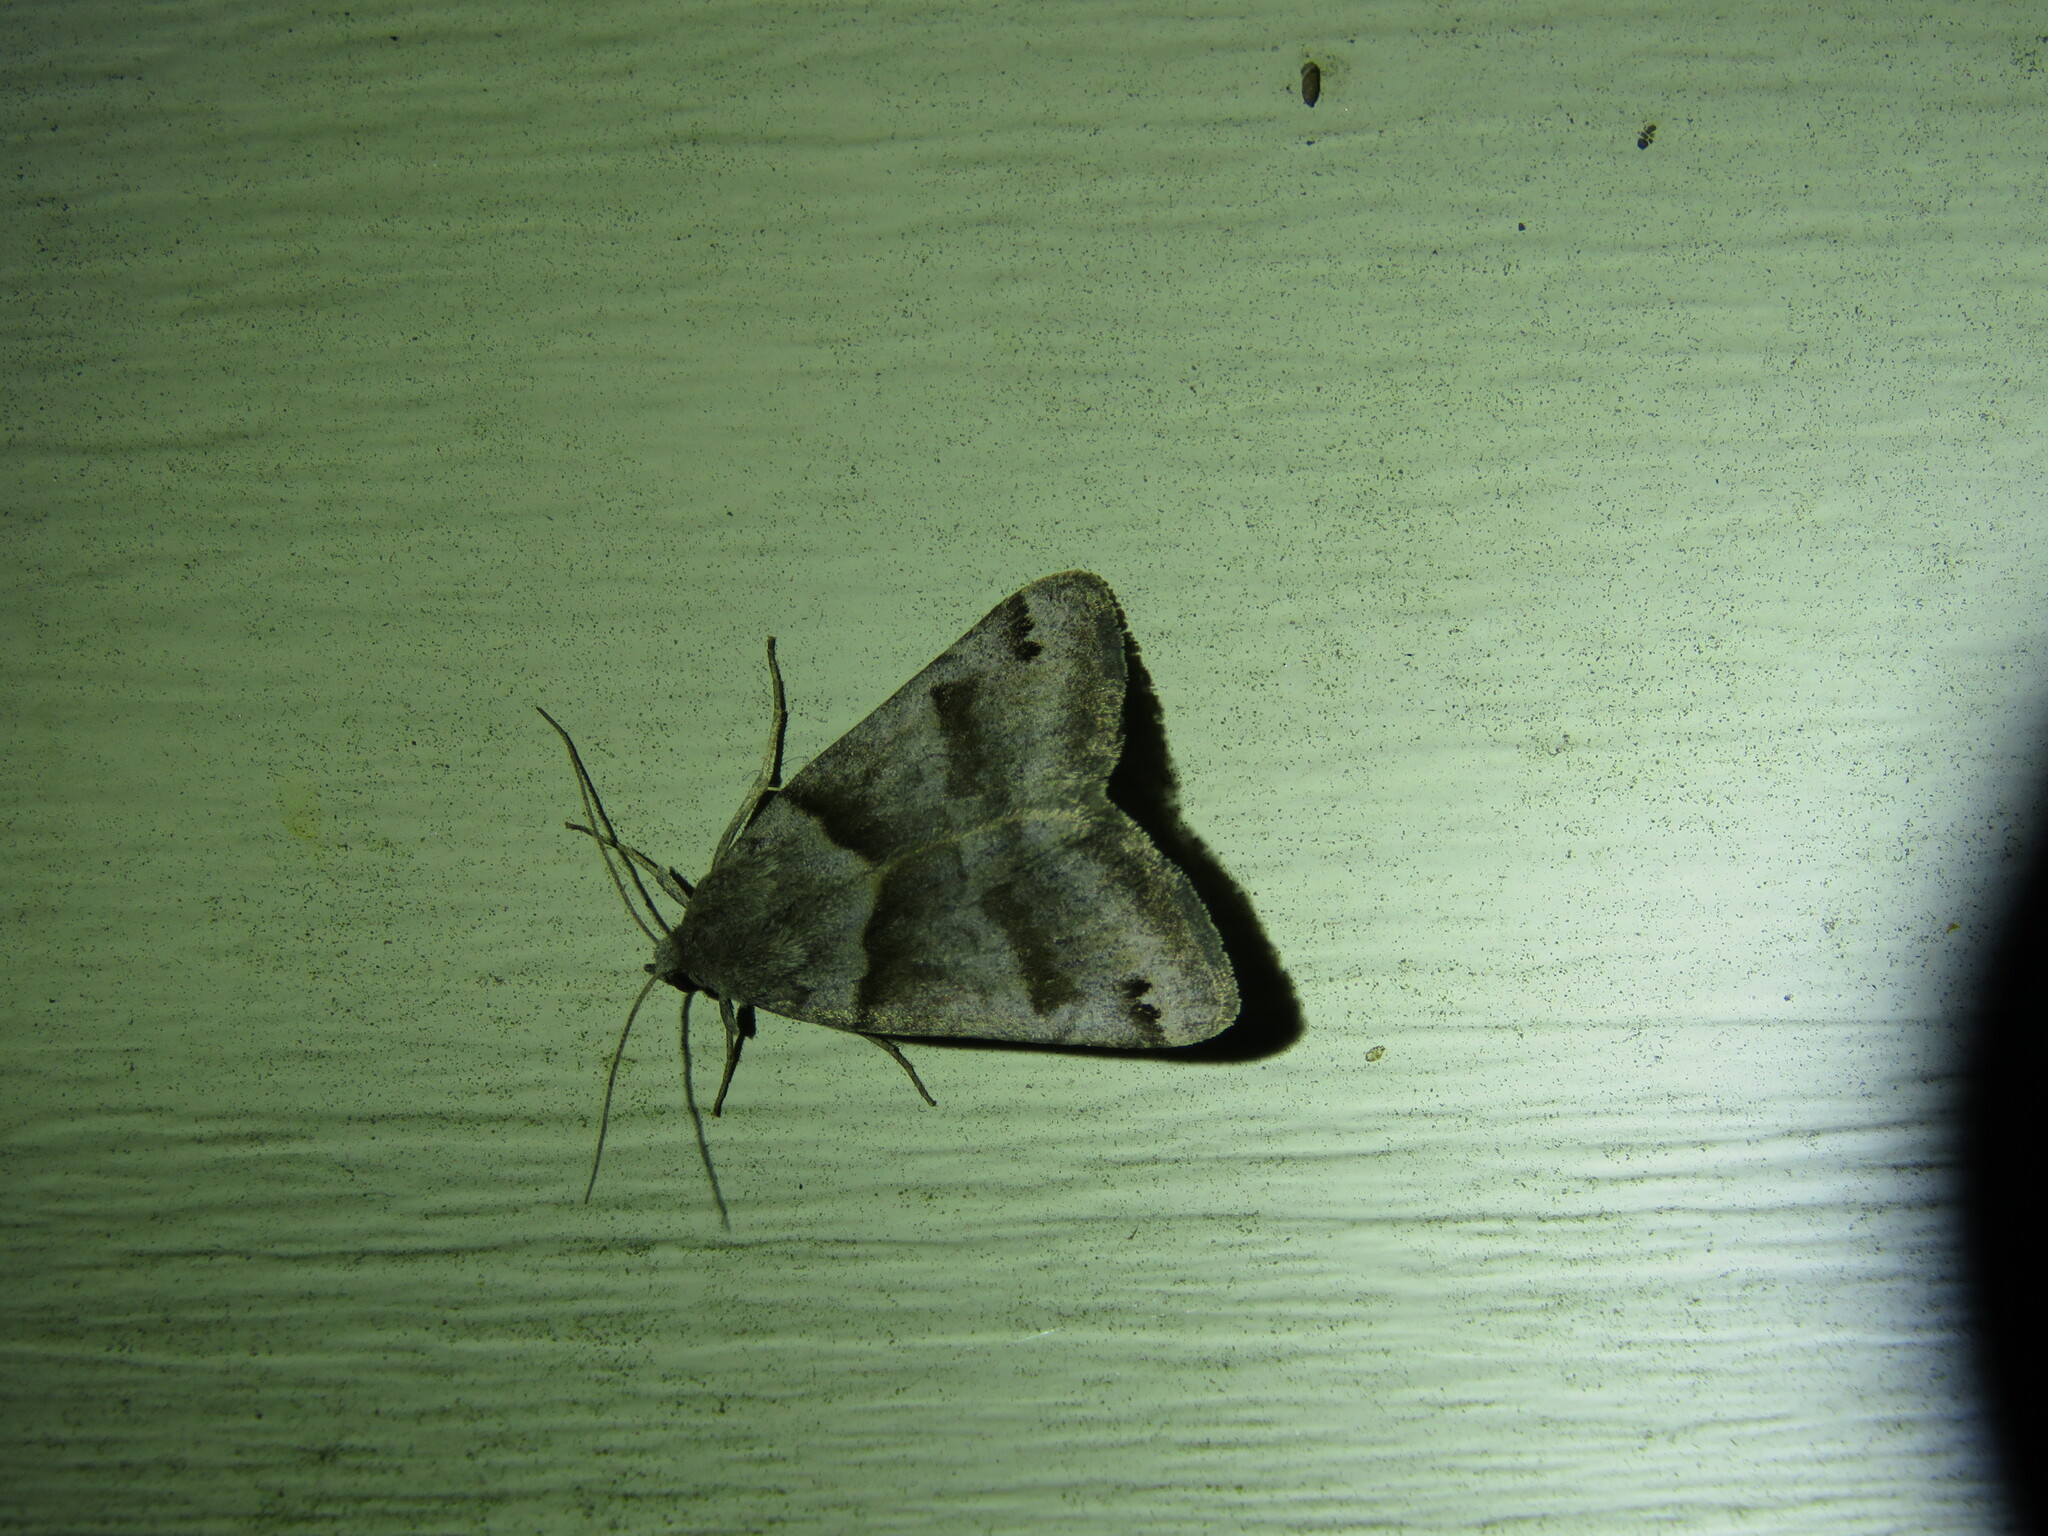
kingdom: Animalia
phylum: Arthropoda
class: Insecta
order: Lepidoptera
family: Erebidae
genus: Caenurgina
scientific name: Caenurgina crassiuscula
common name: Double-barred
